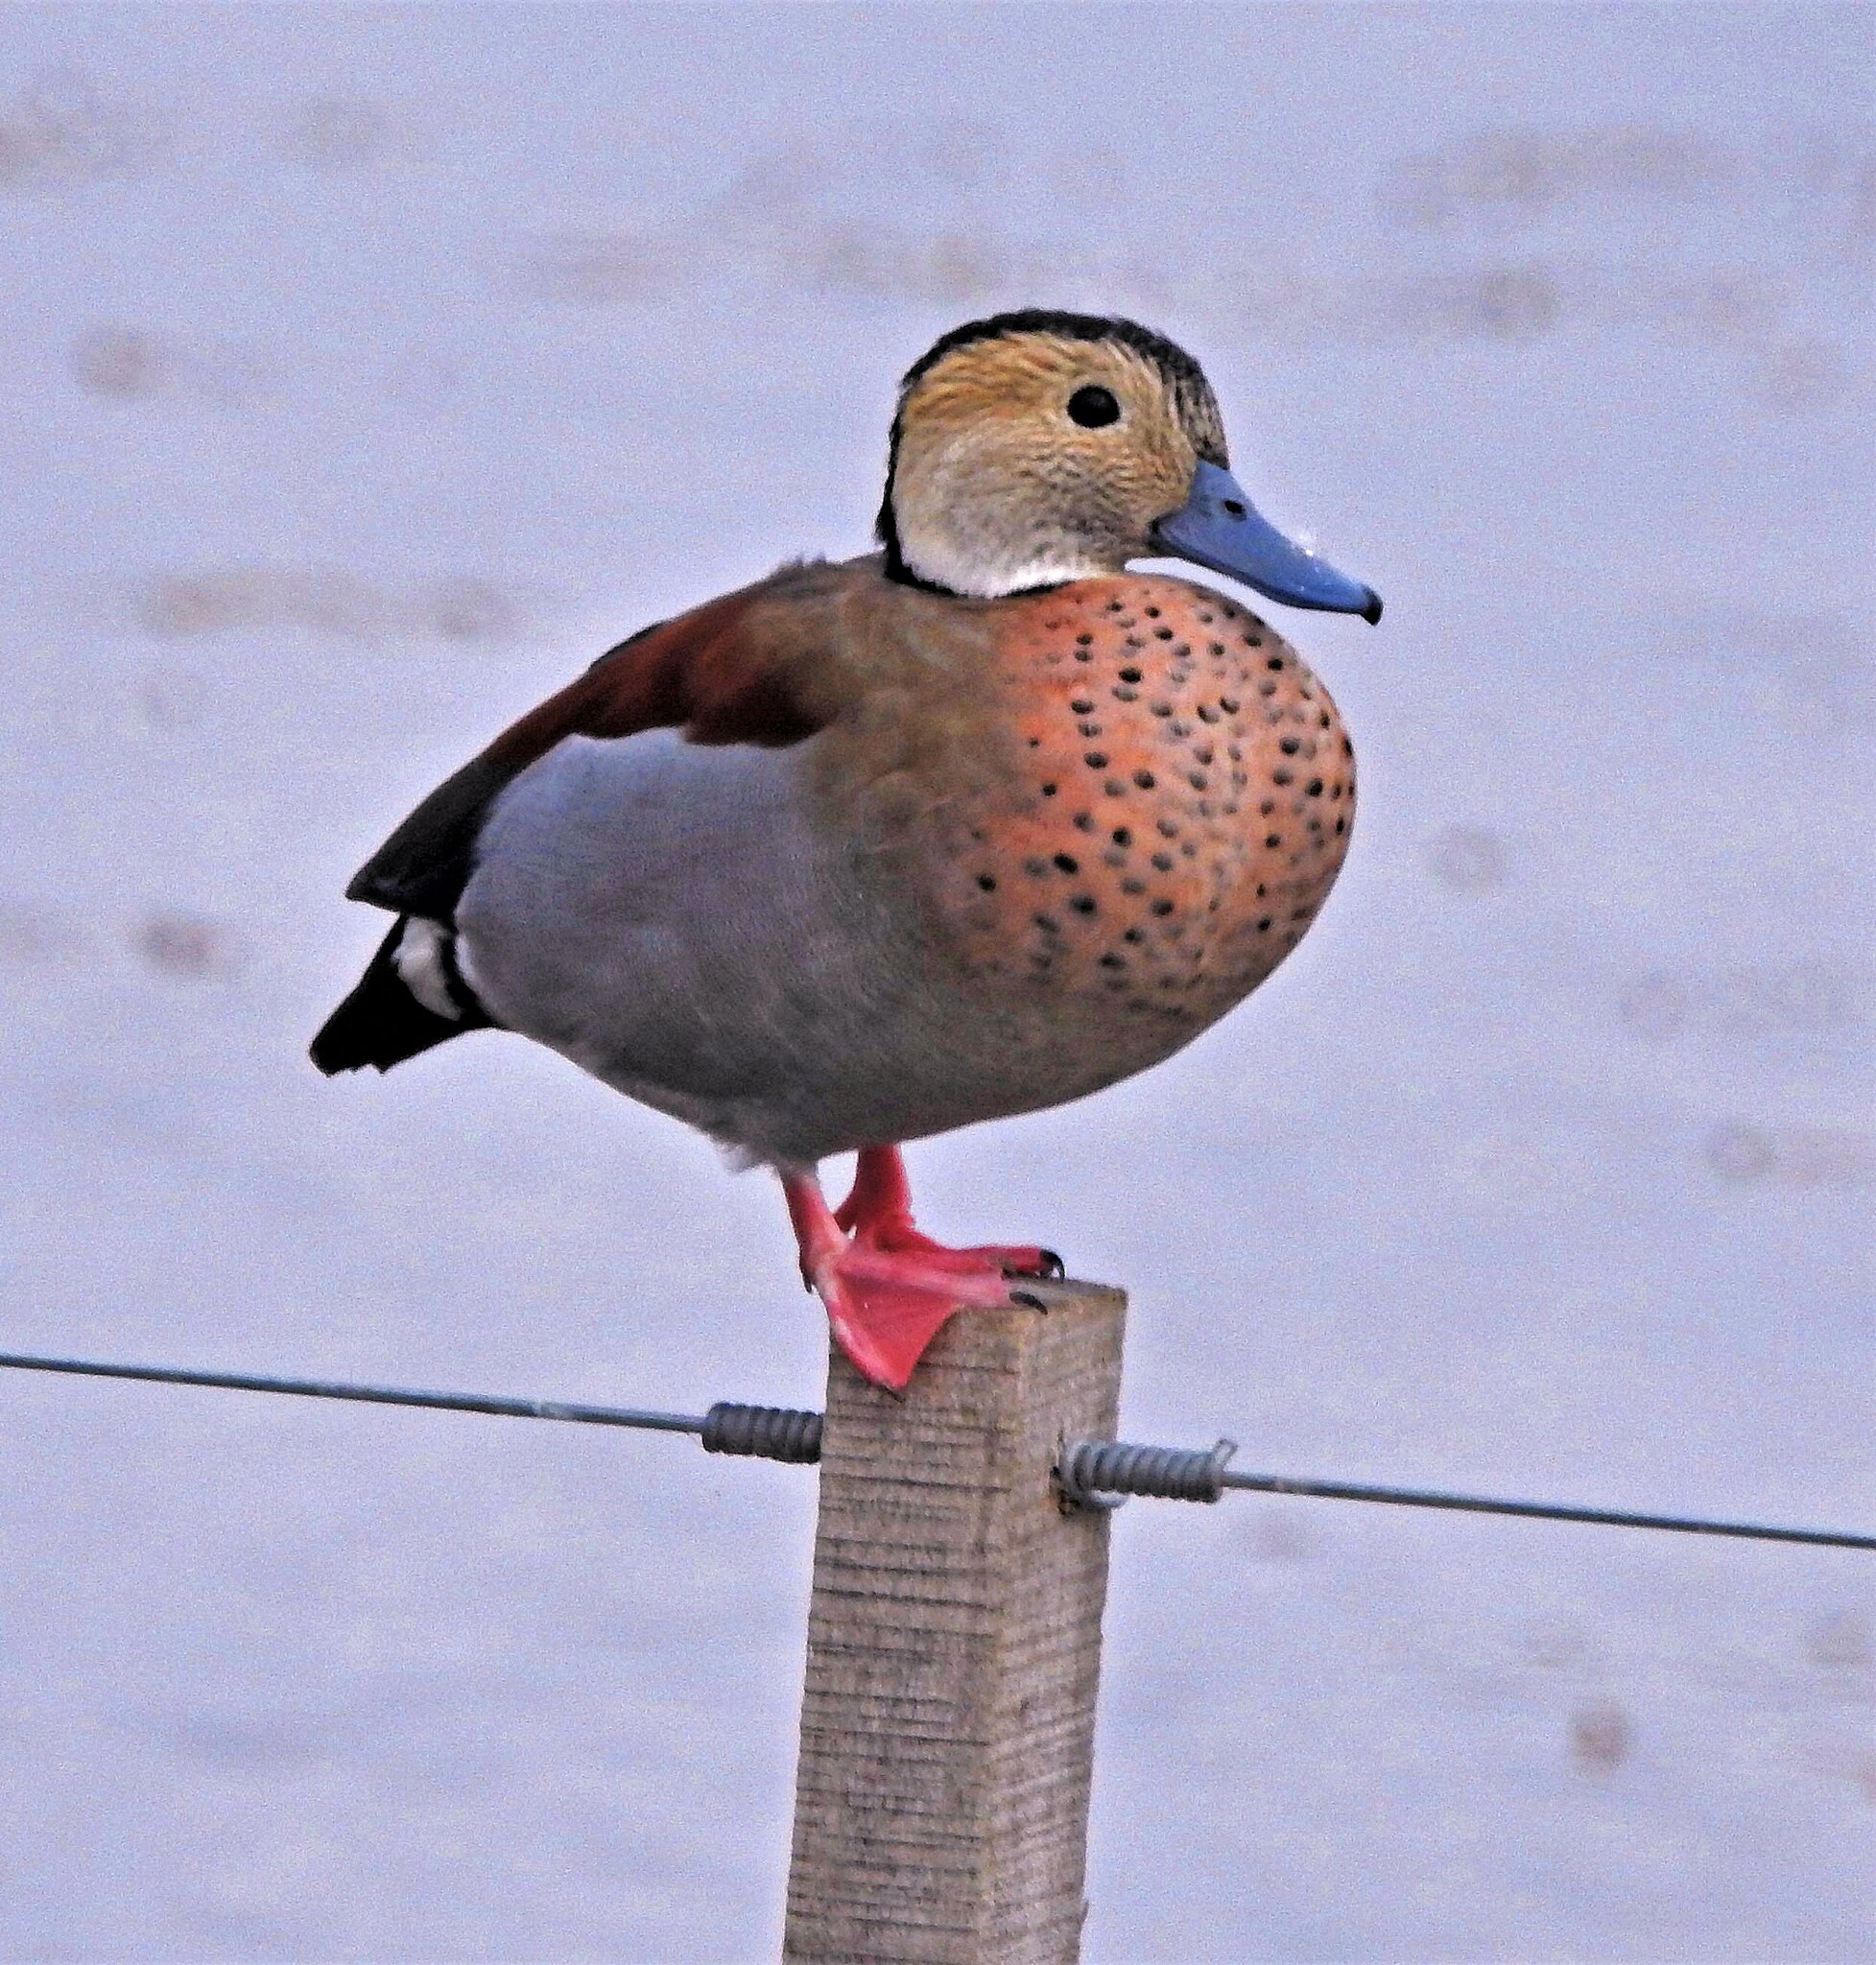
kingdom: Animalia
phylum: Chordata
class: Aves
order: Anseriformes
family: Anatidae
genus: Callonetta
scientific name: Callonetta leucophrys
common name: Ringed teal
